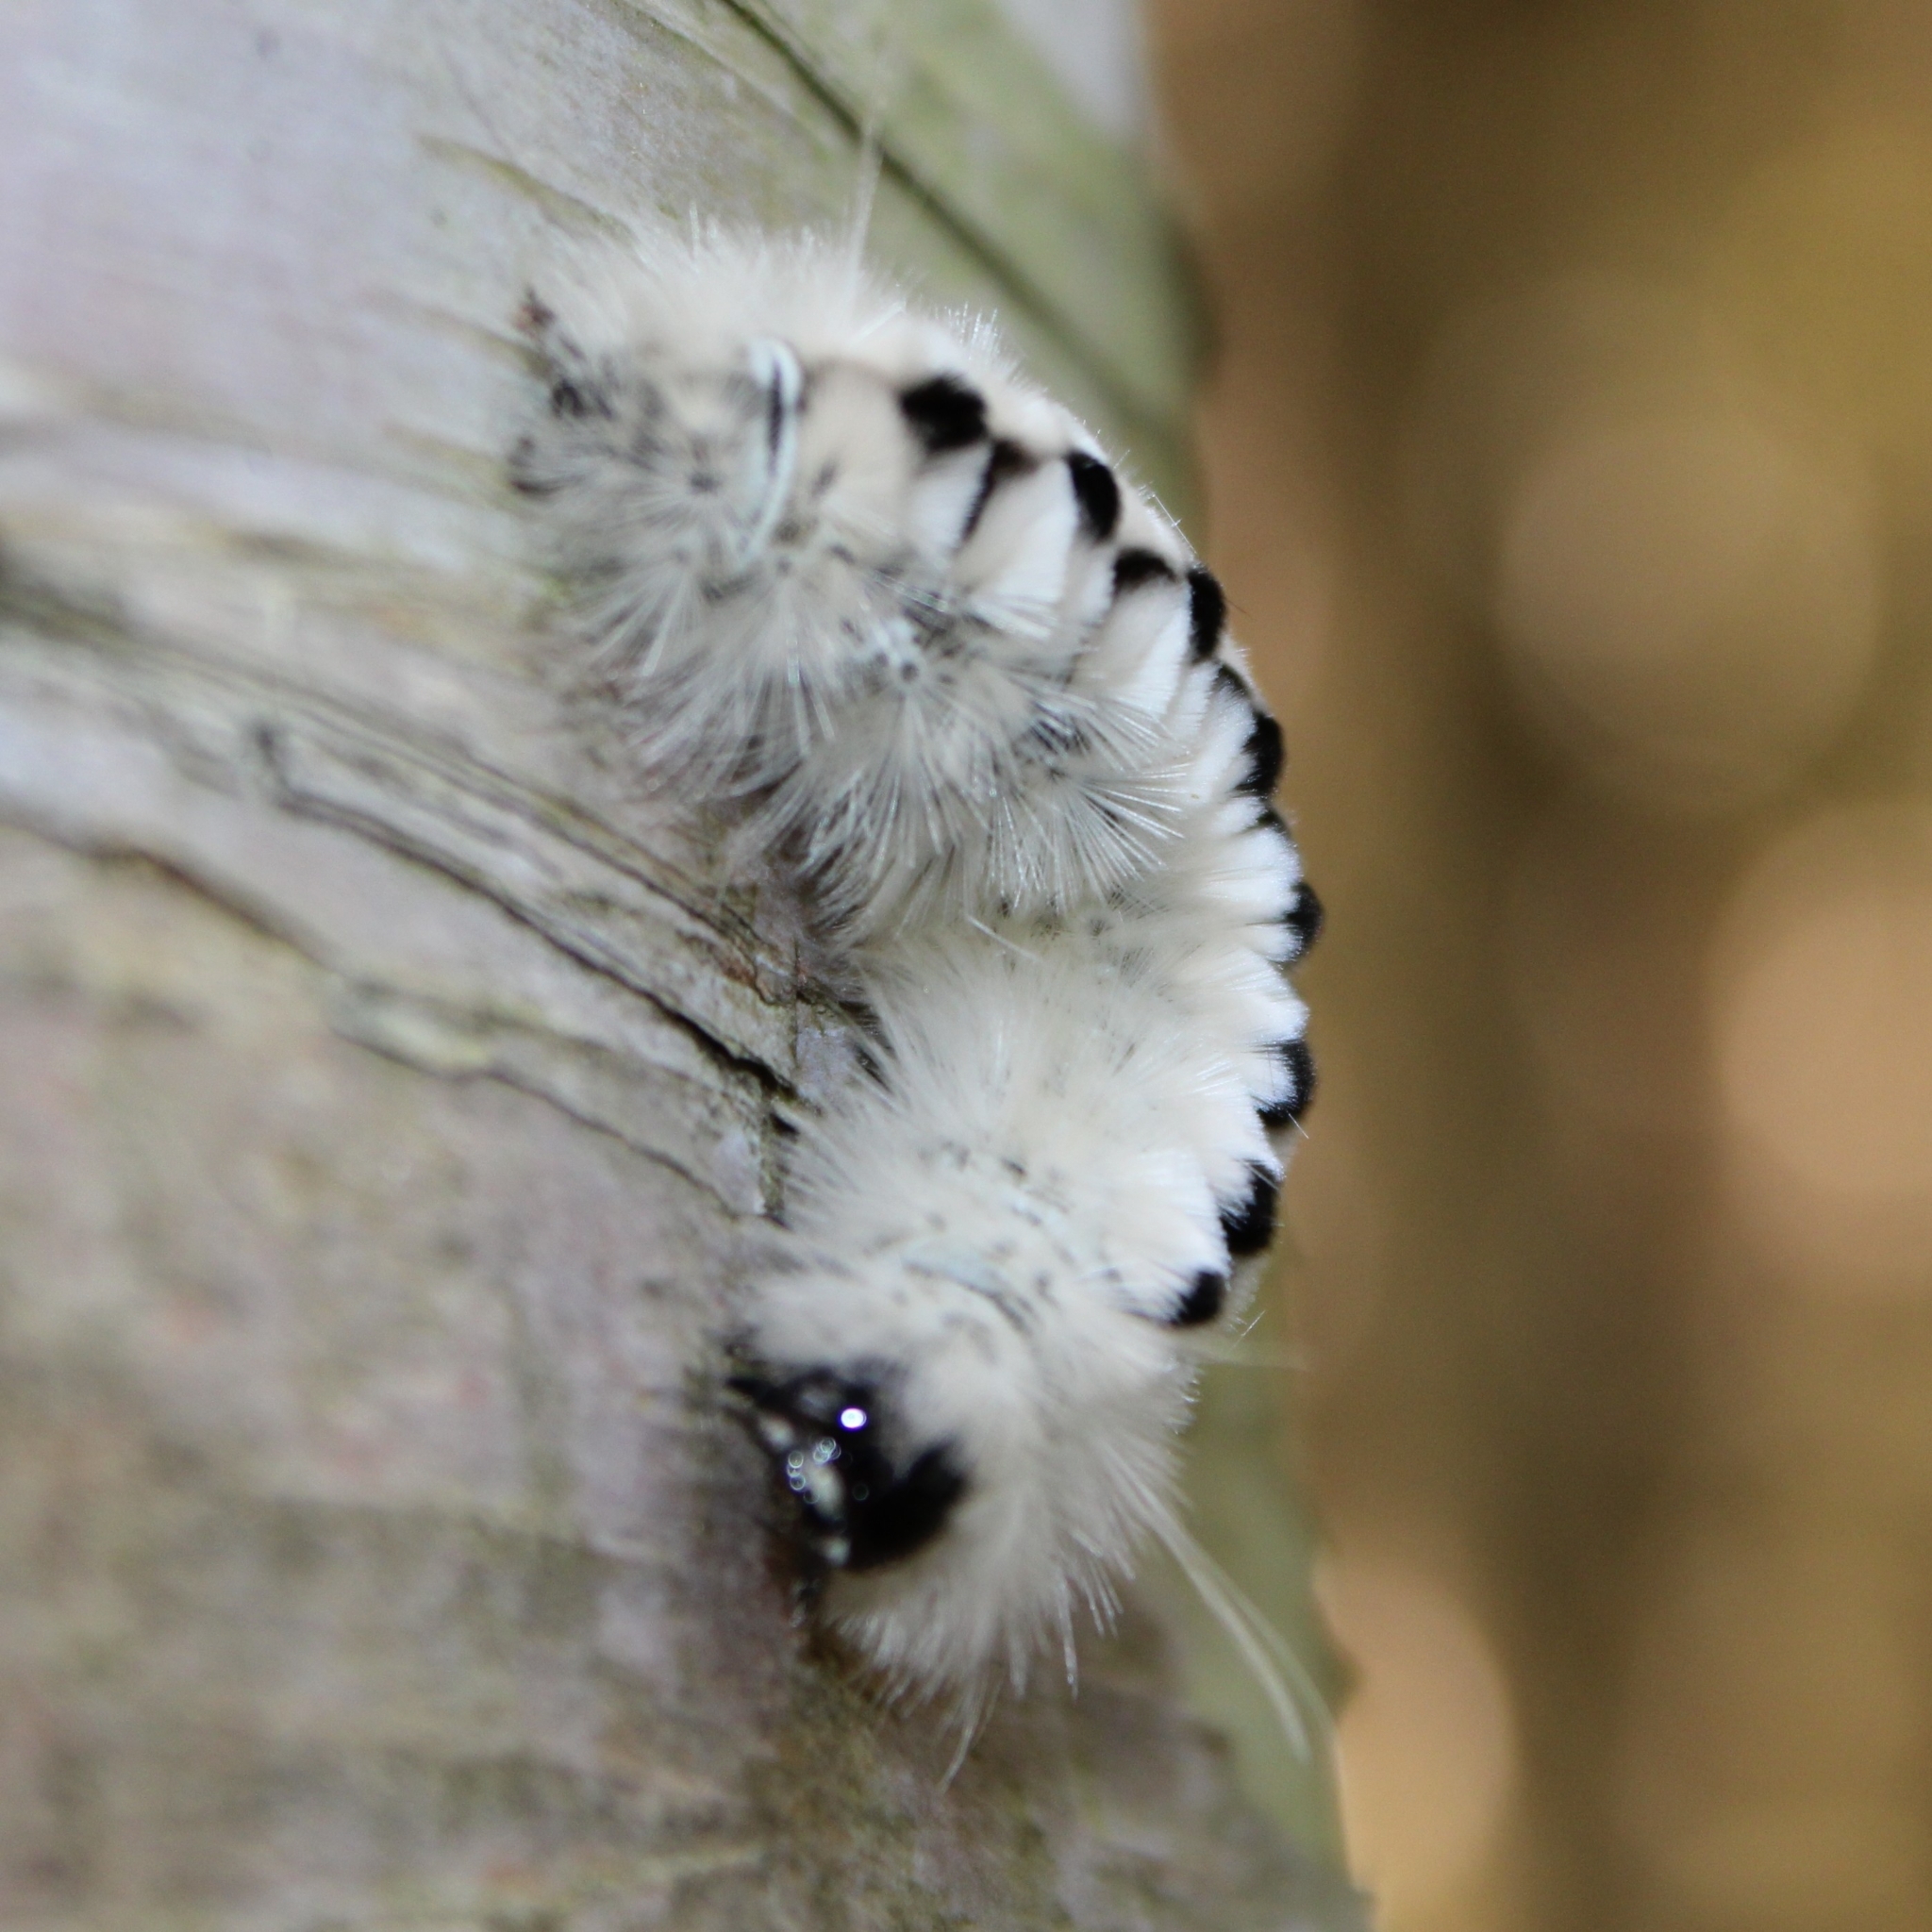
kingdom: Animalia
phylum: Arthropoda
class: Insecta
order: Lepidoptera
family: Erebidae
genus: Lophocampa
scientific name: Lophocampa caryae
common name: Hickory tussock moth
